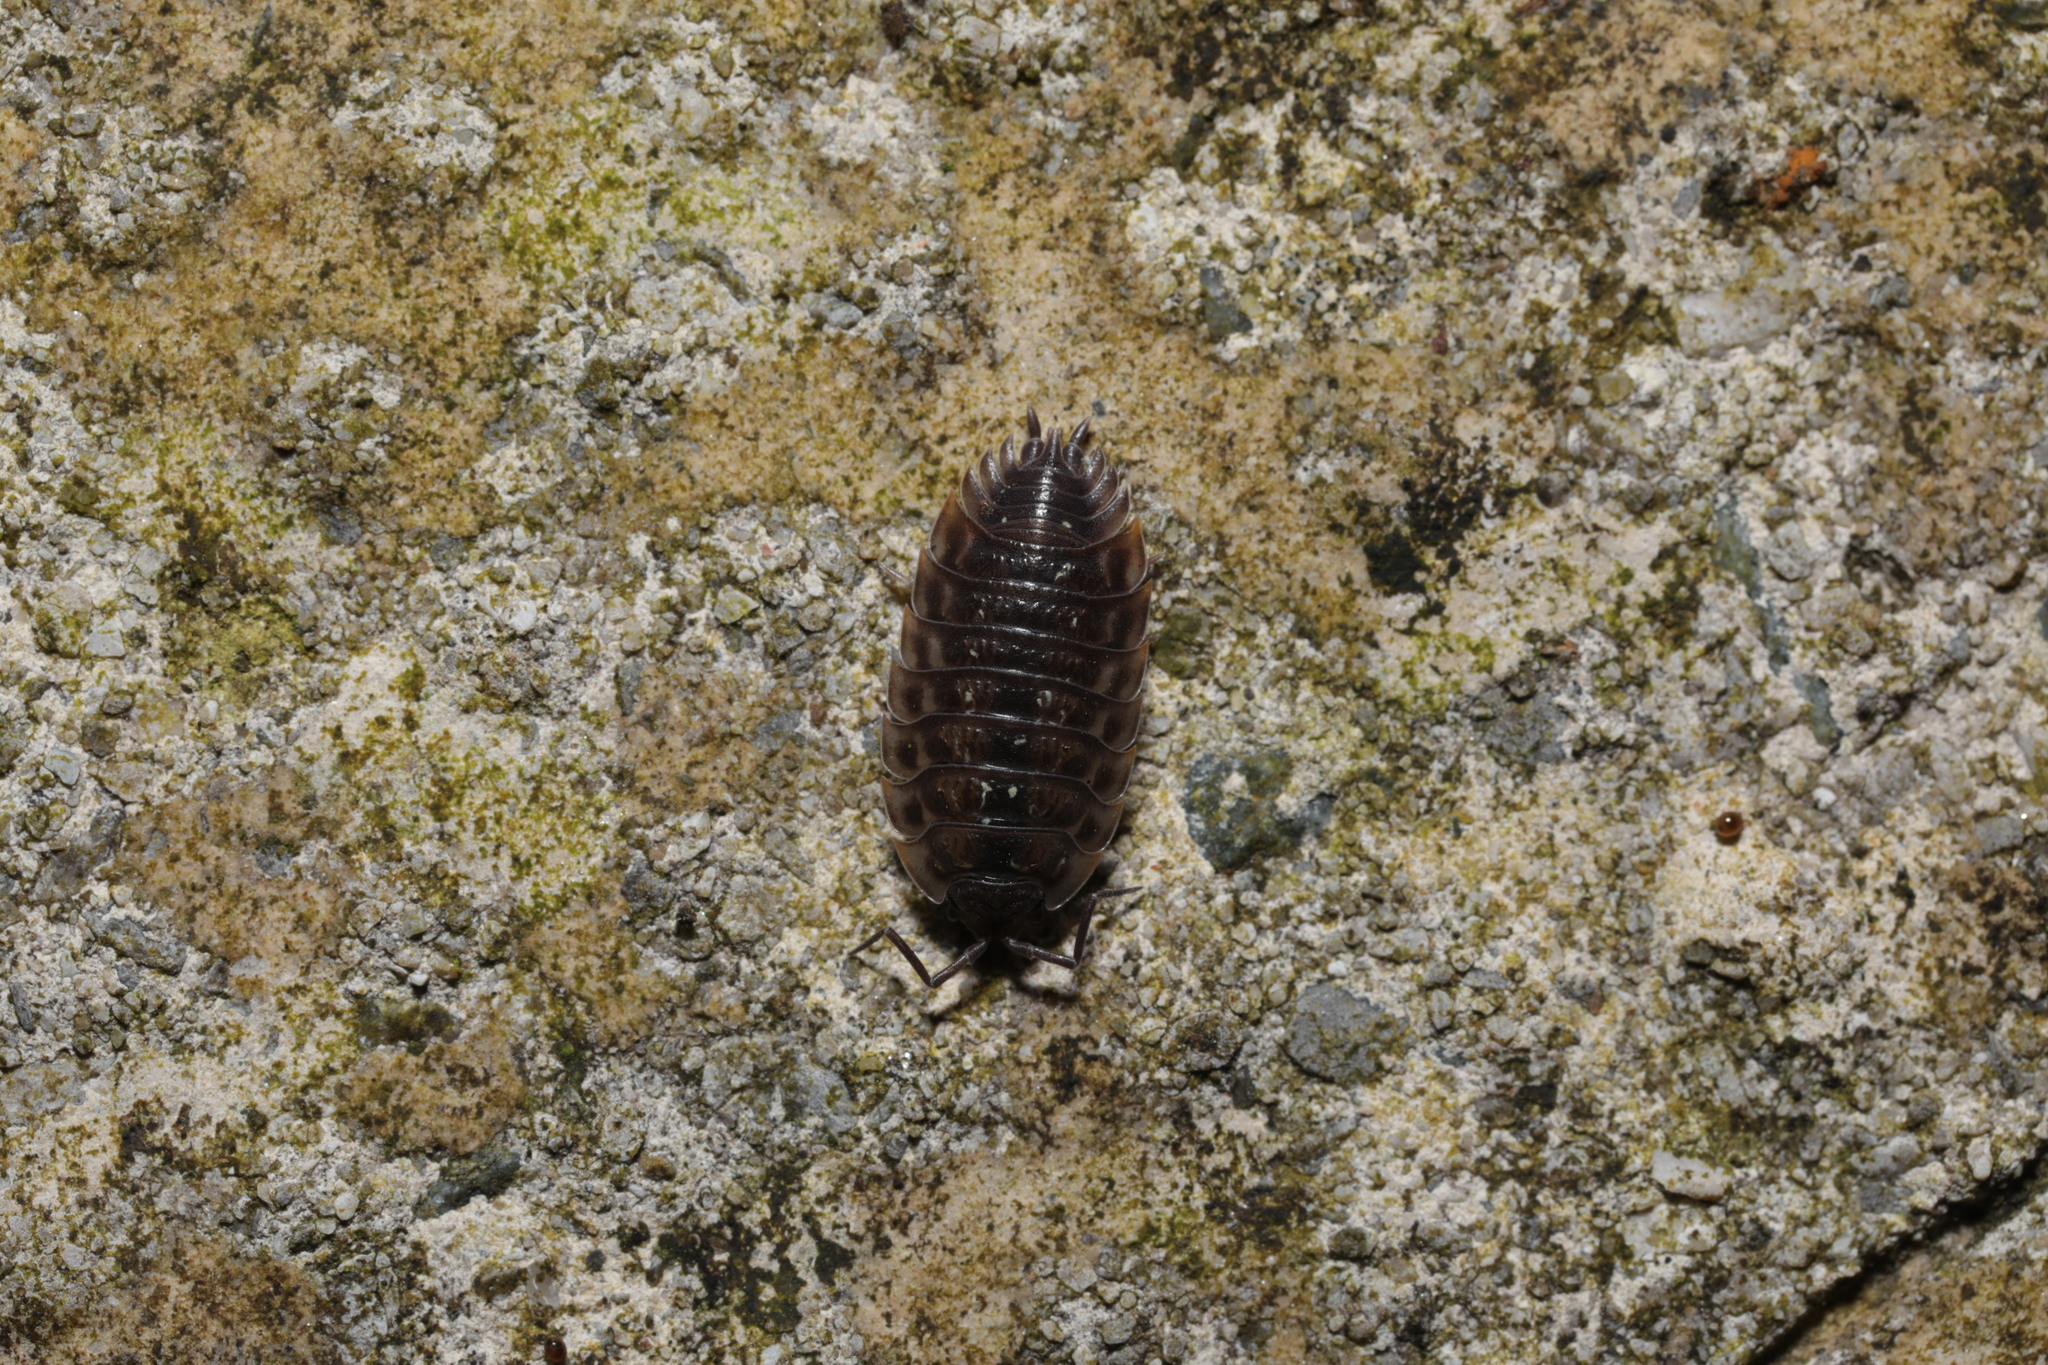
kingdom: Animalia
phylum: Arthropoda
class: Malacostraca
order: Isopoda
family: Oniscidae
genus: Oniscus
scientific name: Oniscus asellus
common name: Common shiny woodlouse
